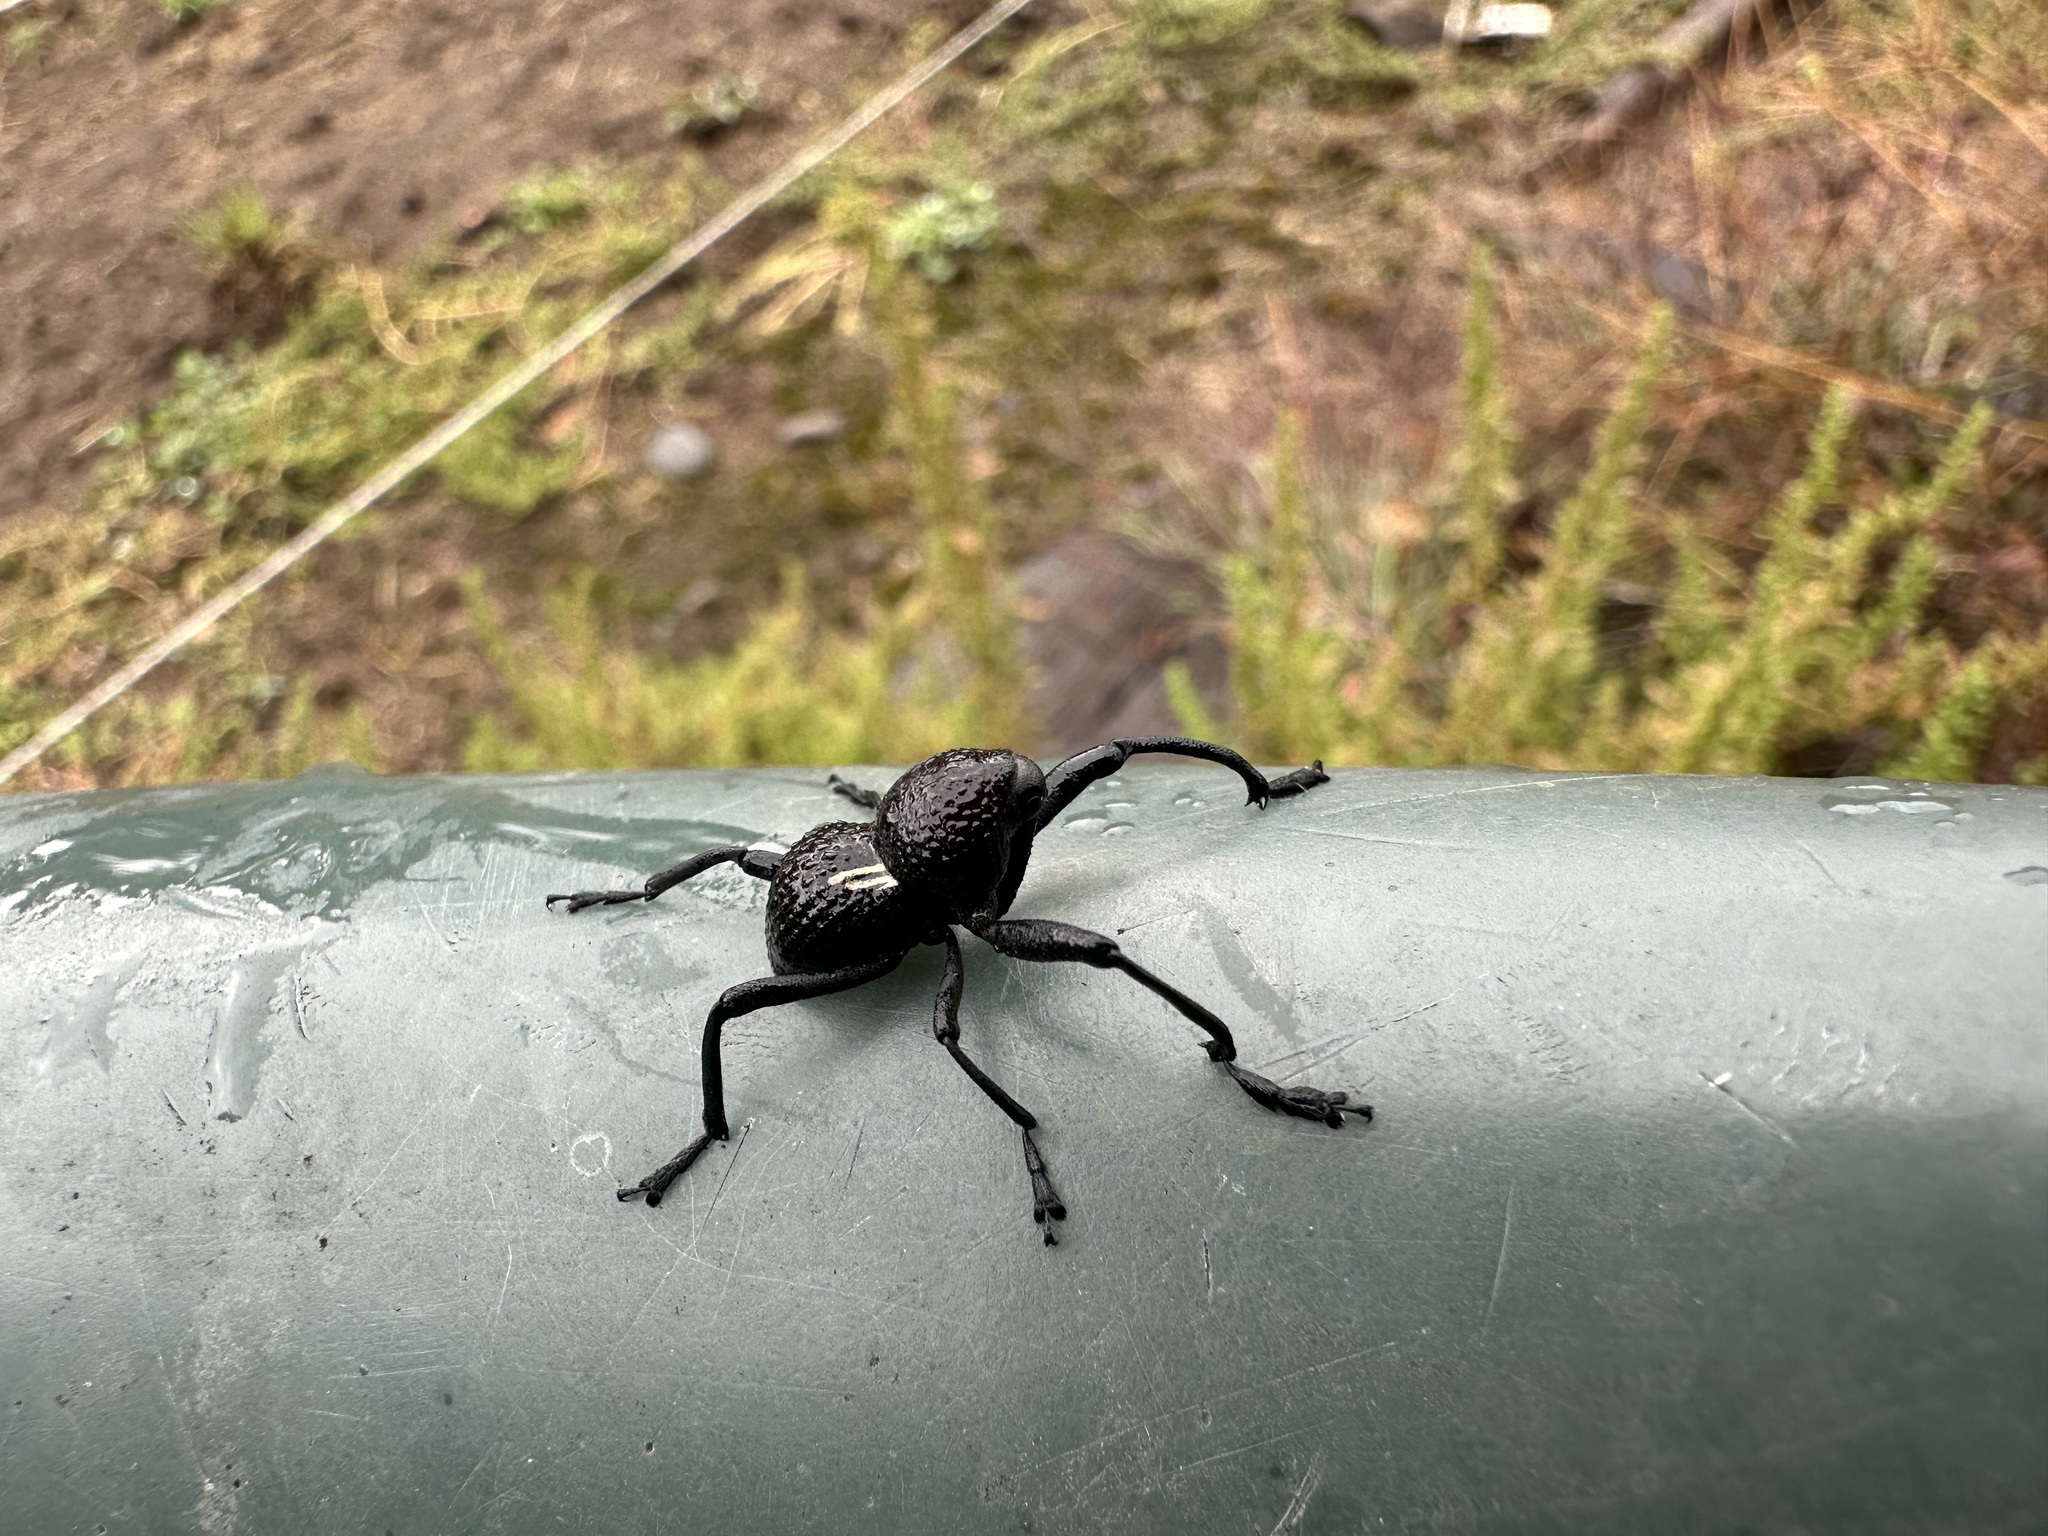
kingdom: Animalia
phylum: Arthropoda
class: Insecta
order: Coleoptera
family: Curculionidae
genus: Rhyephenes
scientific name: Rhyephenes humeralis
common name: Araè±ita chilena del pino
